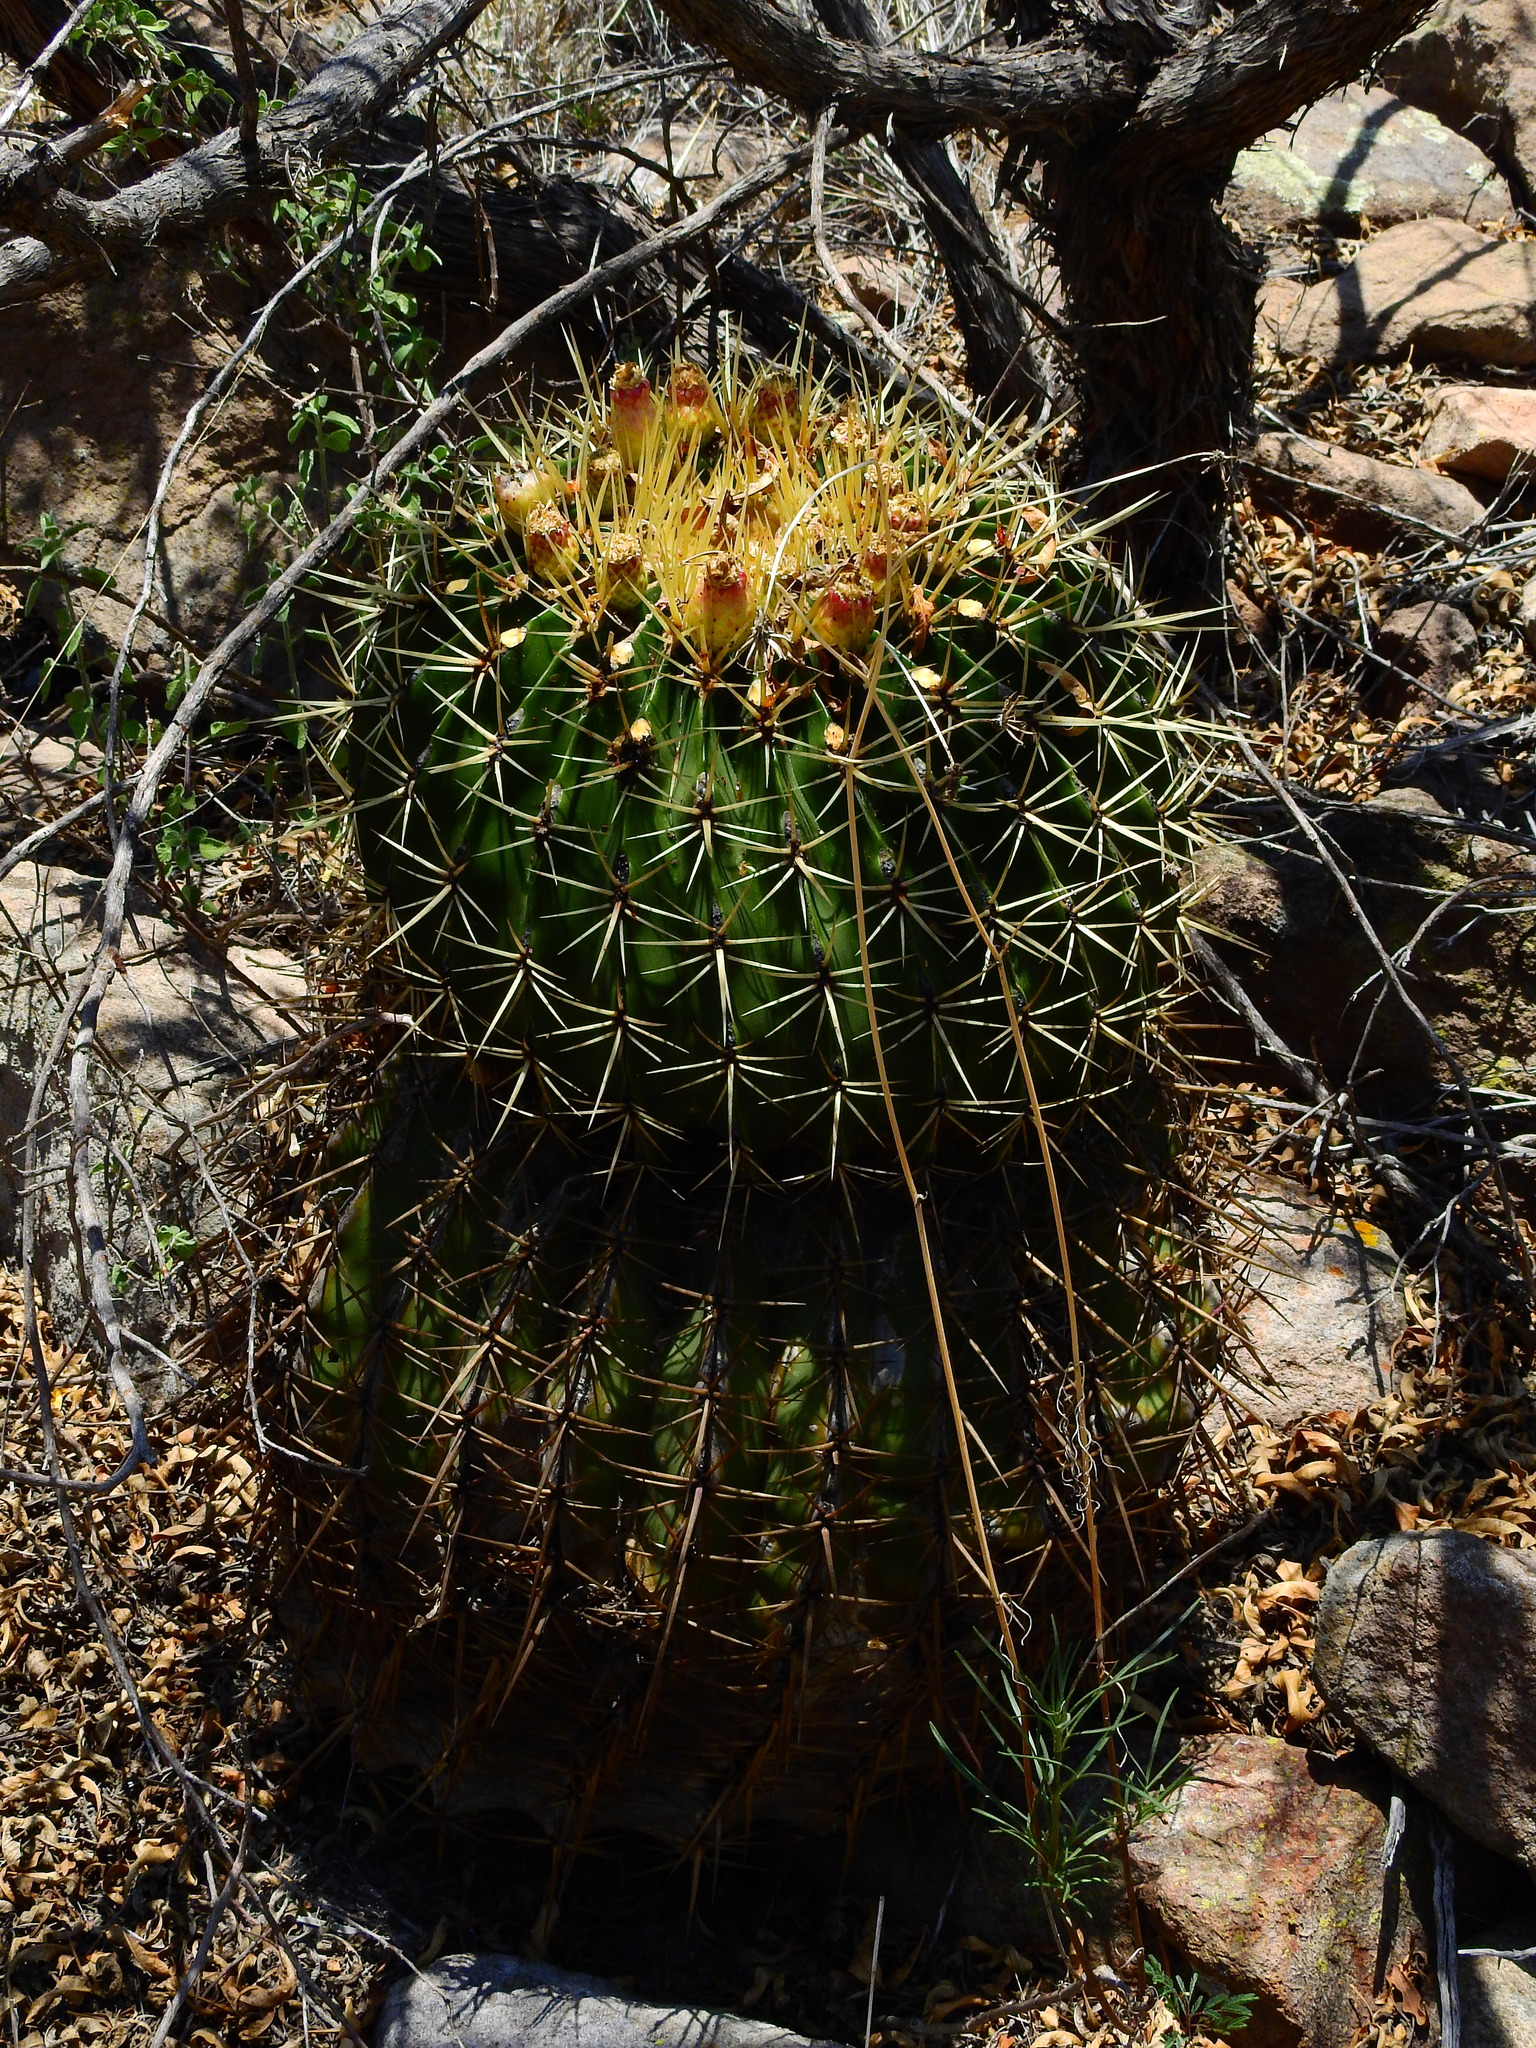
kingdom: Plantae
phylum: Tracheophyta
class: Magnoliopsida
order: Caryophyllales
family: Cactaceae
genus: Bisnaga
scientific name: Bisnaga histrix
